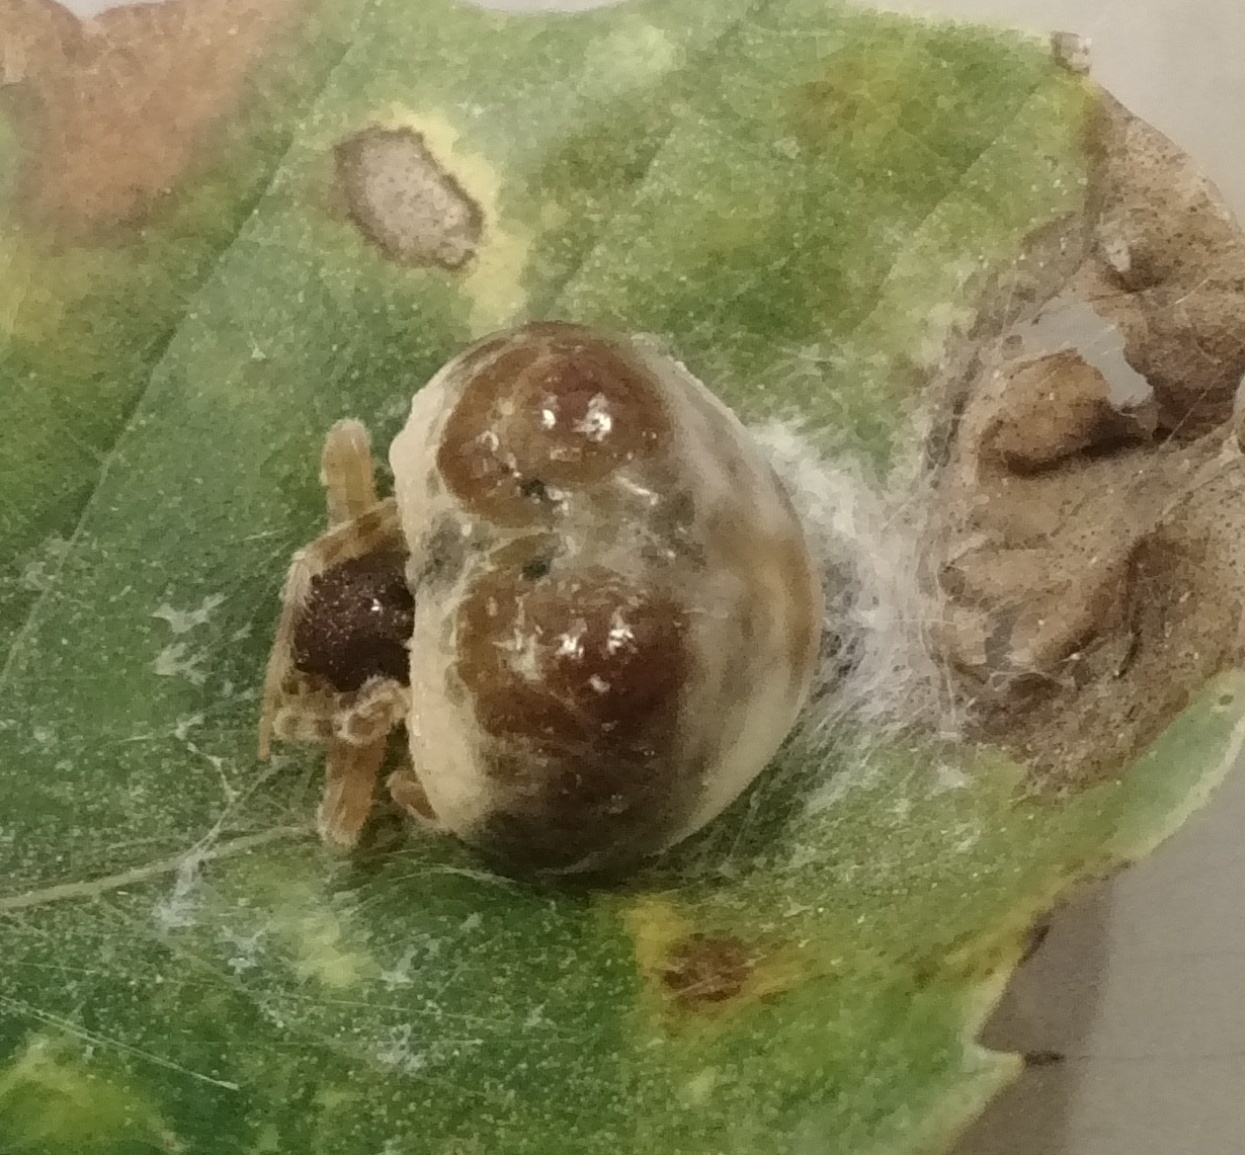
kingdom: Animalia
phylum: Arthropoda
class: Arachnida
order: Araneae
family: Araneidae
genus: Mastophora
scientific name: Mastophora hutchinsoni
